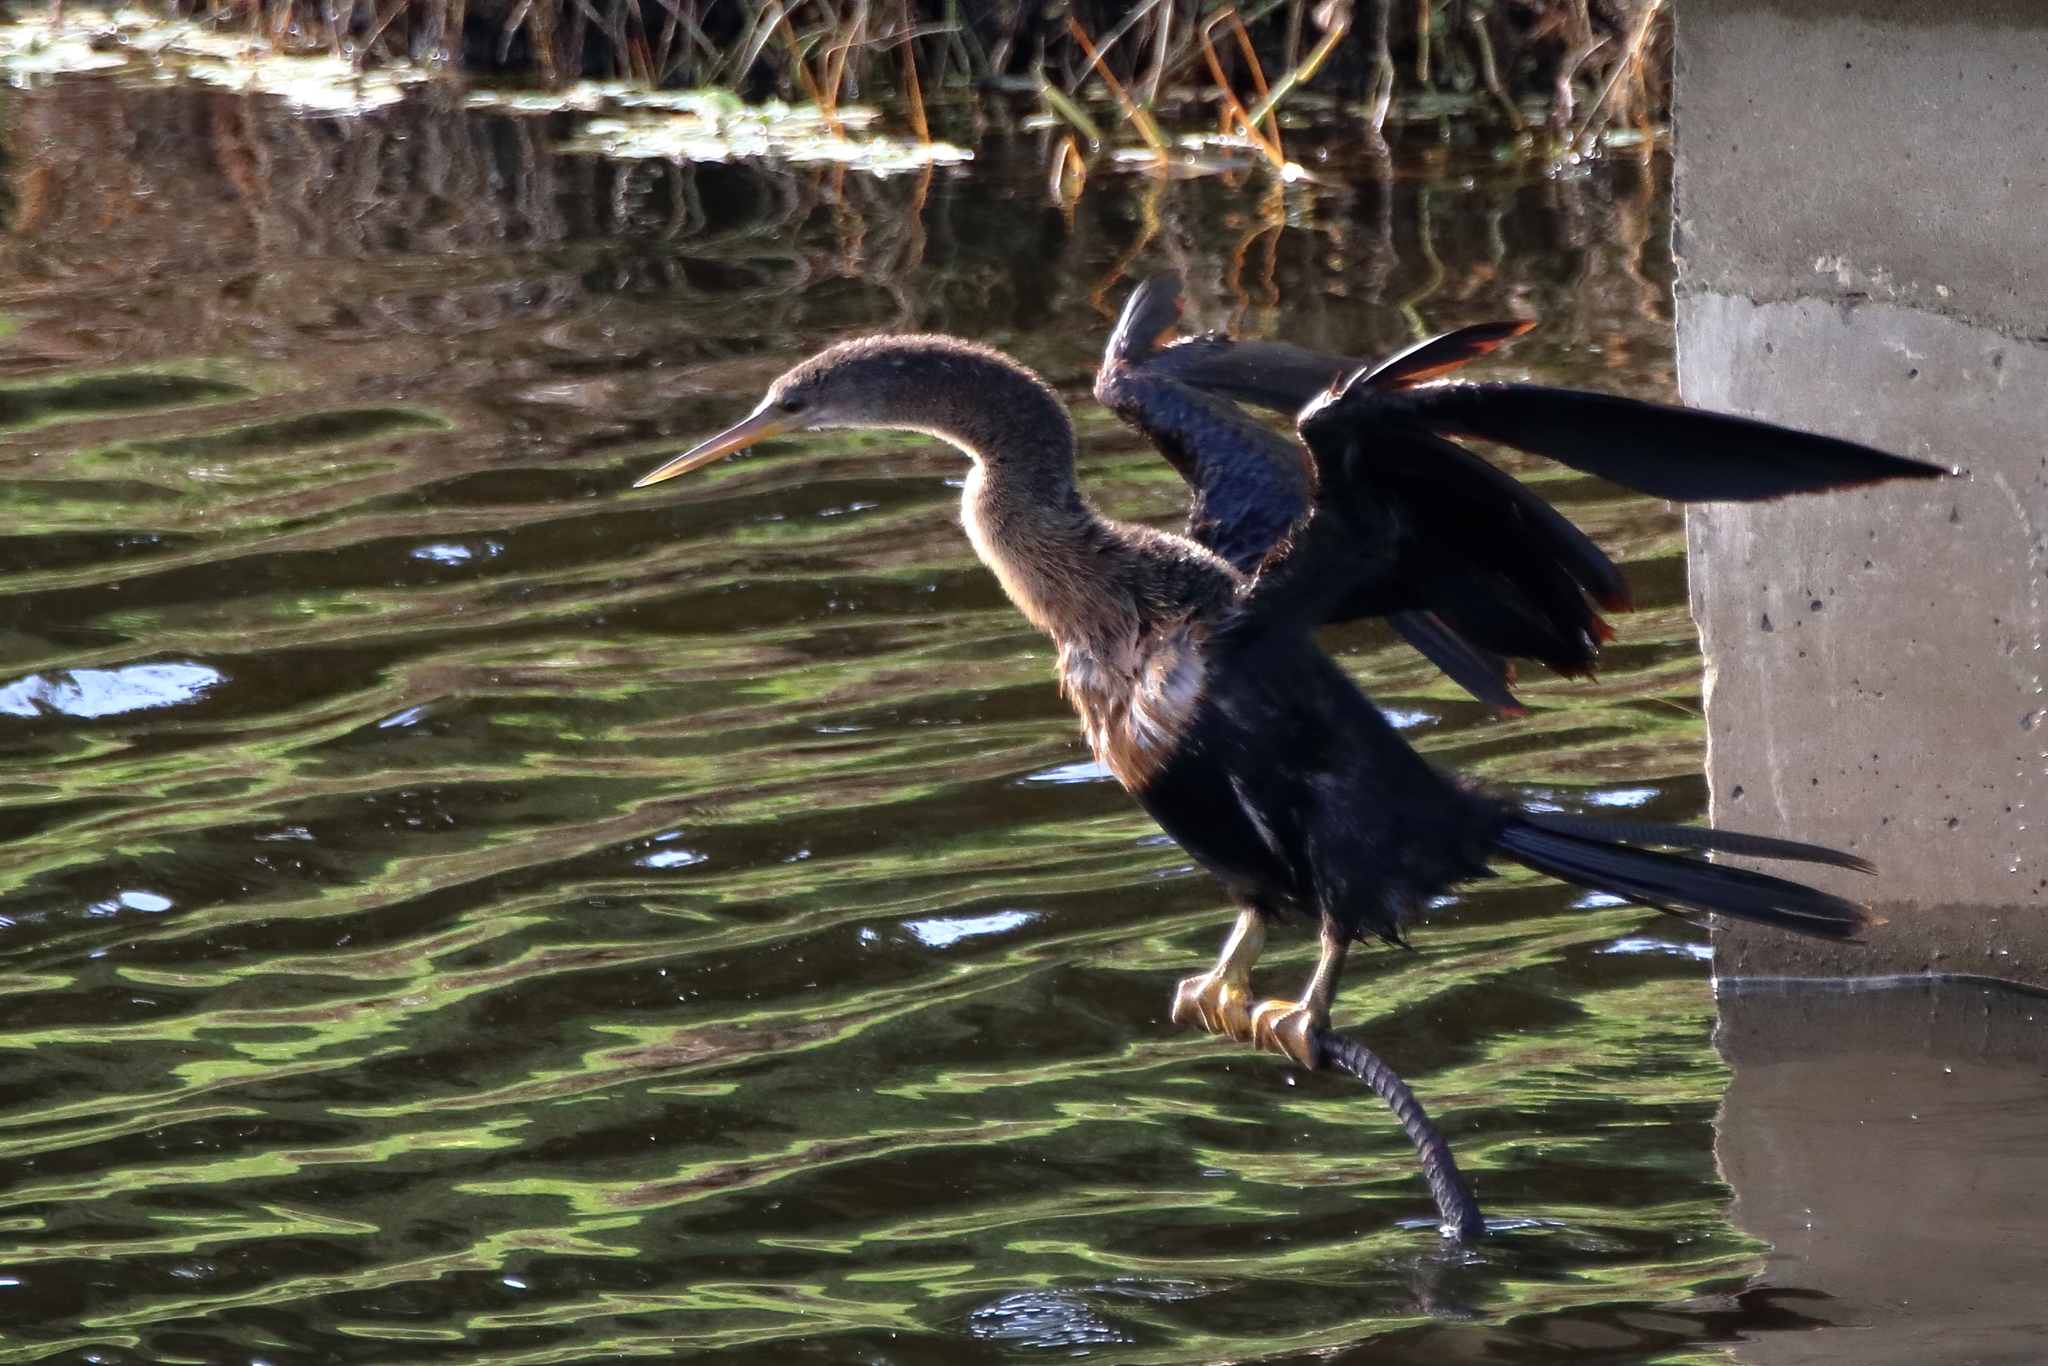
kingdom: Animalia
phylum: Chordata
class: Aves
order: Suliformes
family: Anhingidae
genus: Anhinga
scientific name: Anhinga anhinga
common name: Anhinga
